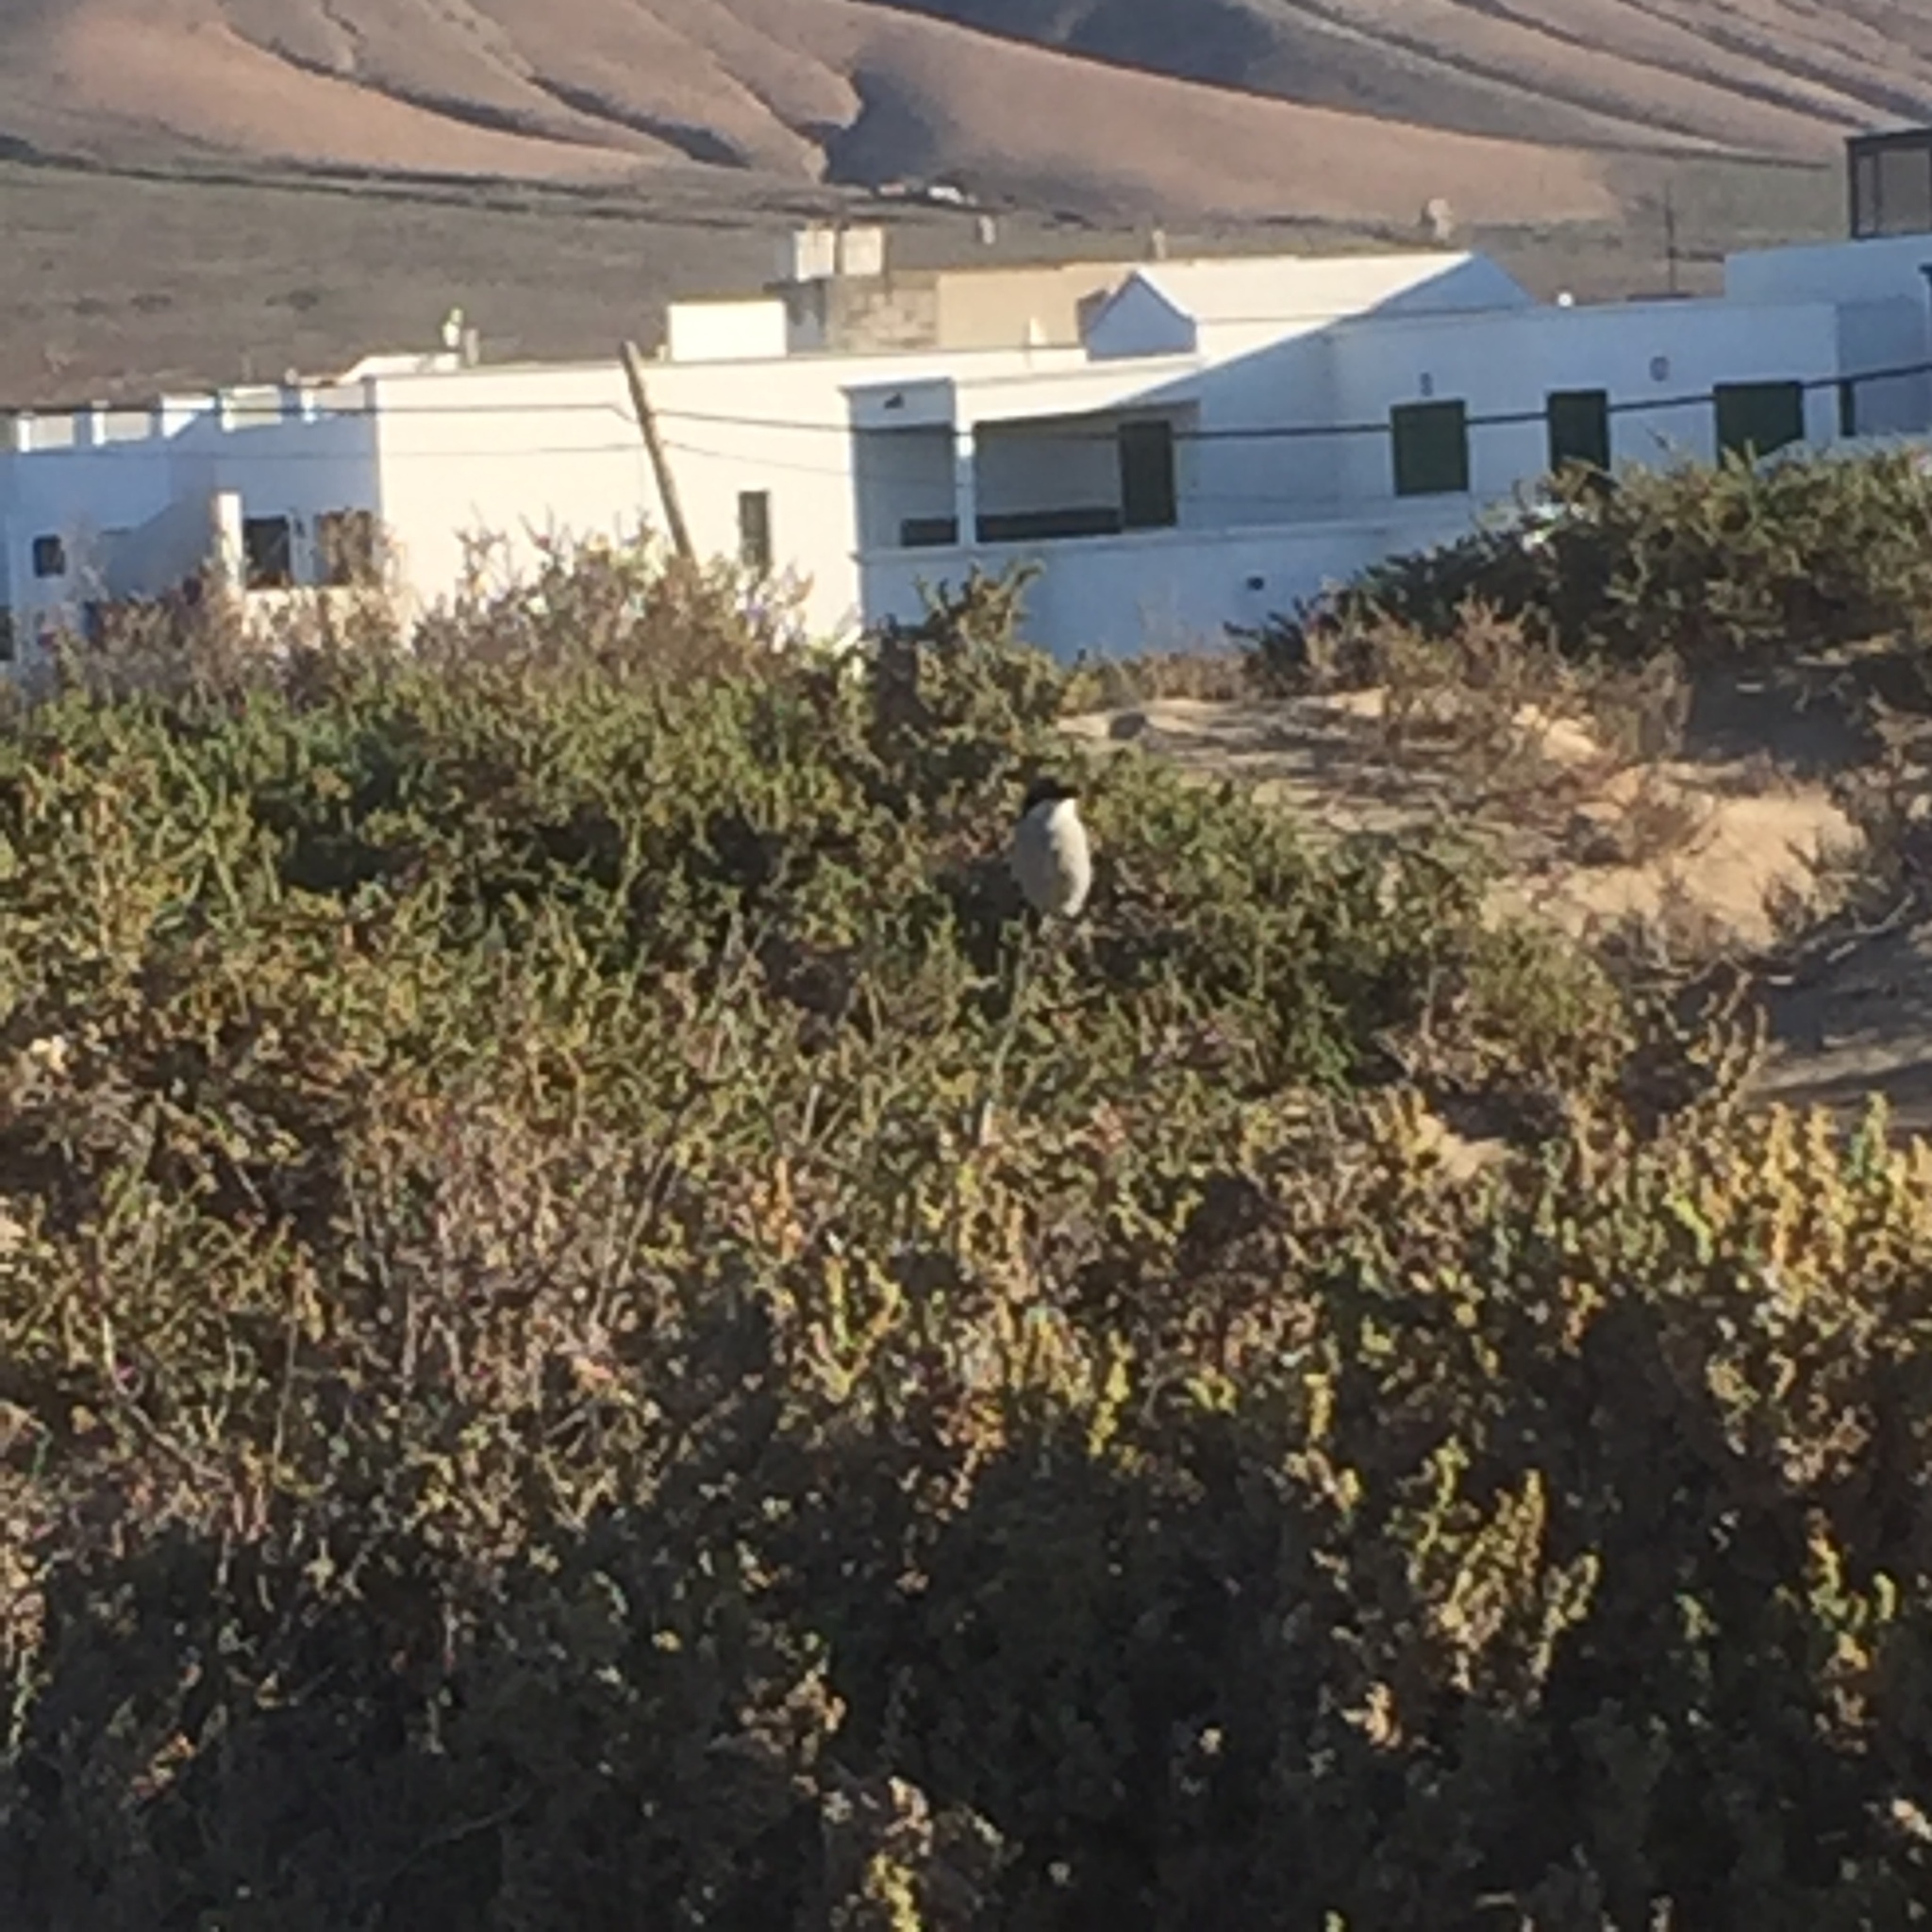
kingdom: Animalia
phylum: Chordata
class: Aves
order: Passeriformes
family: Laniidae
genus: Lanius
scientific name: Lanius excubitor
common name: Great grey shrike
